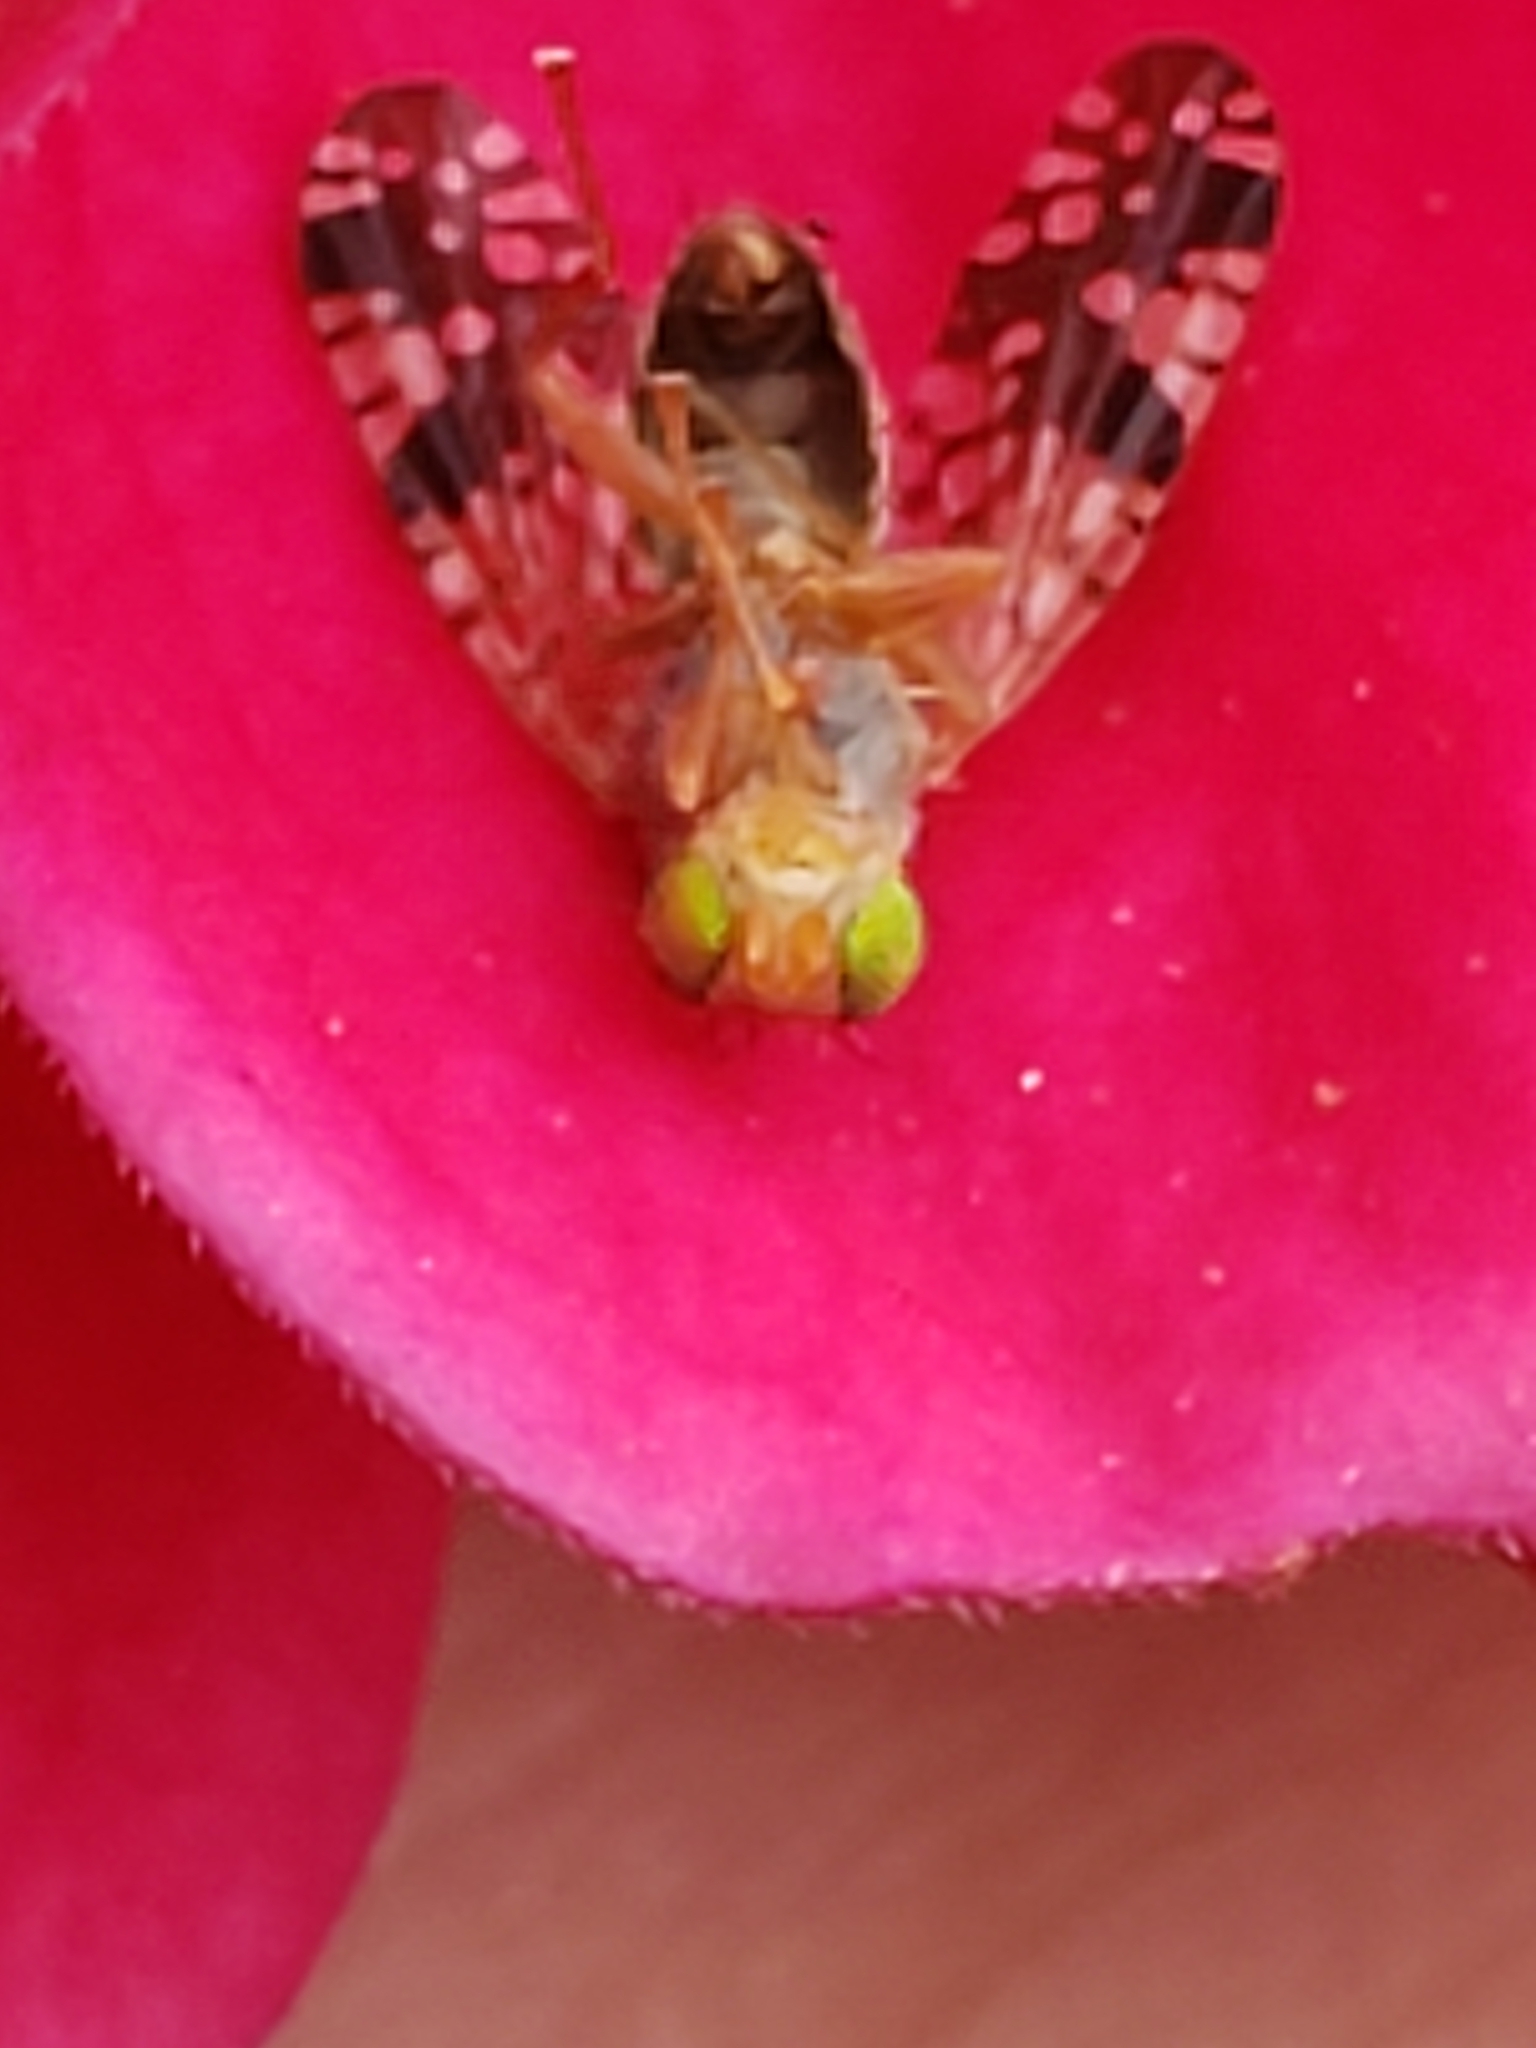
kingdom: Animalia
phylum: Arthropoda
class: Insecta
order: Diptera
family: Tephritidae
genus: Neotephritis
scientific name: Neotephritis finalis
